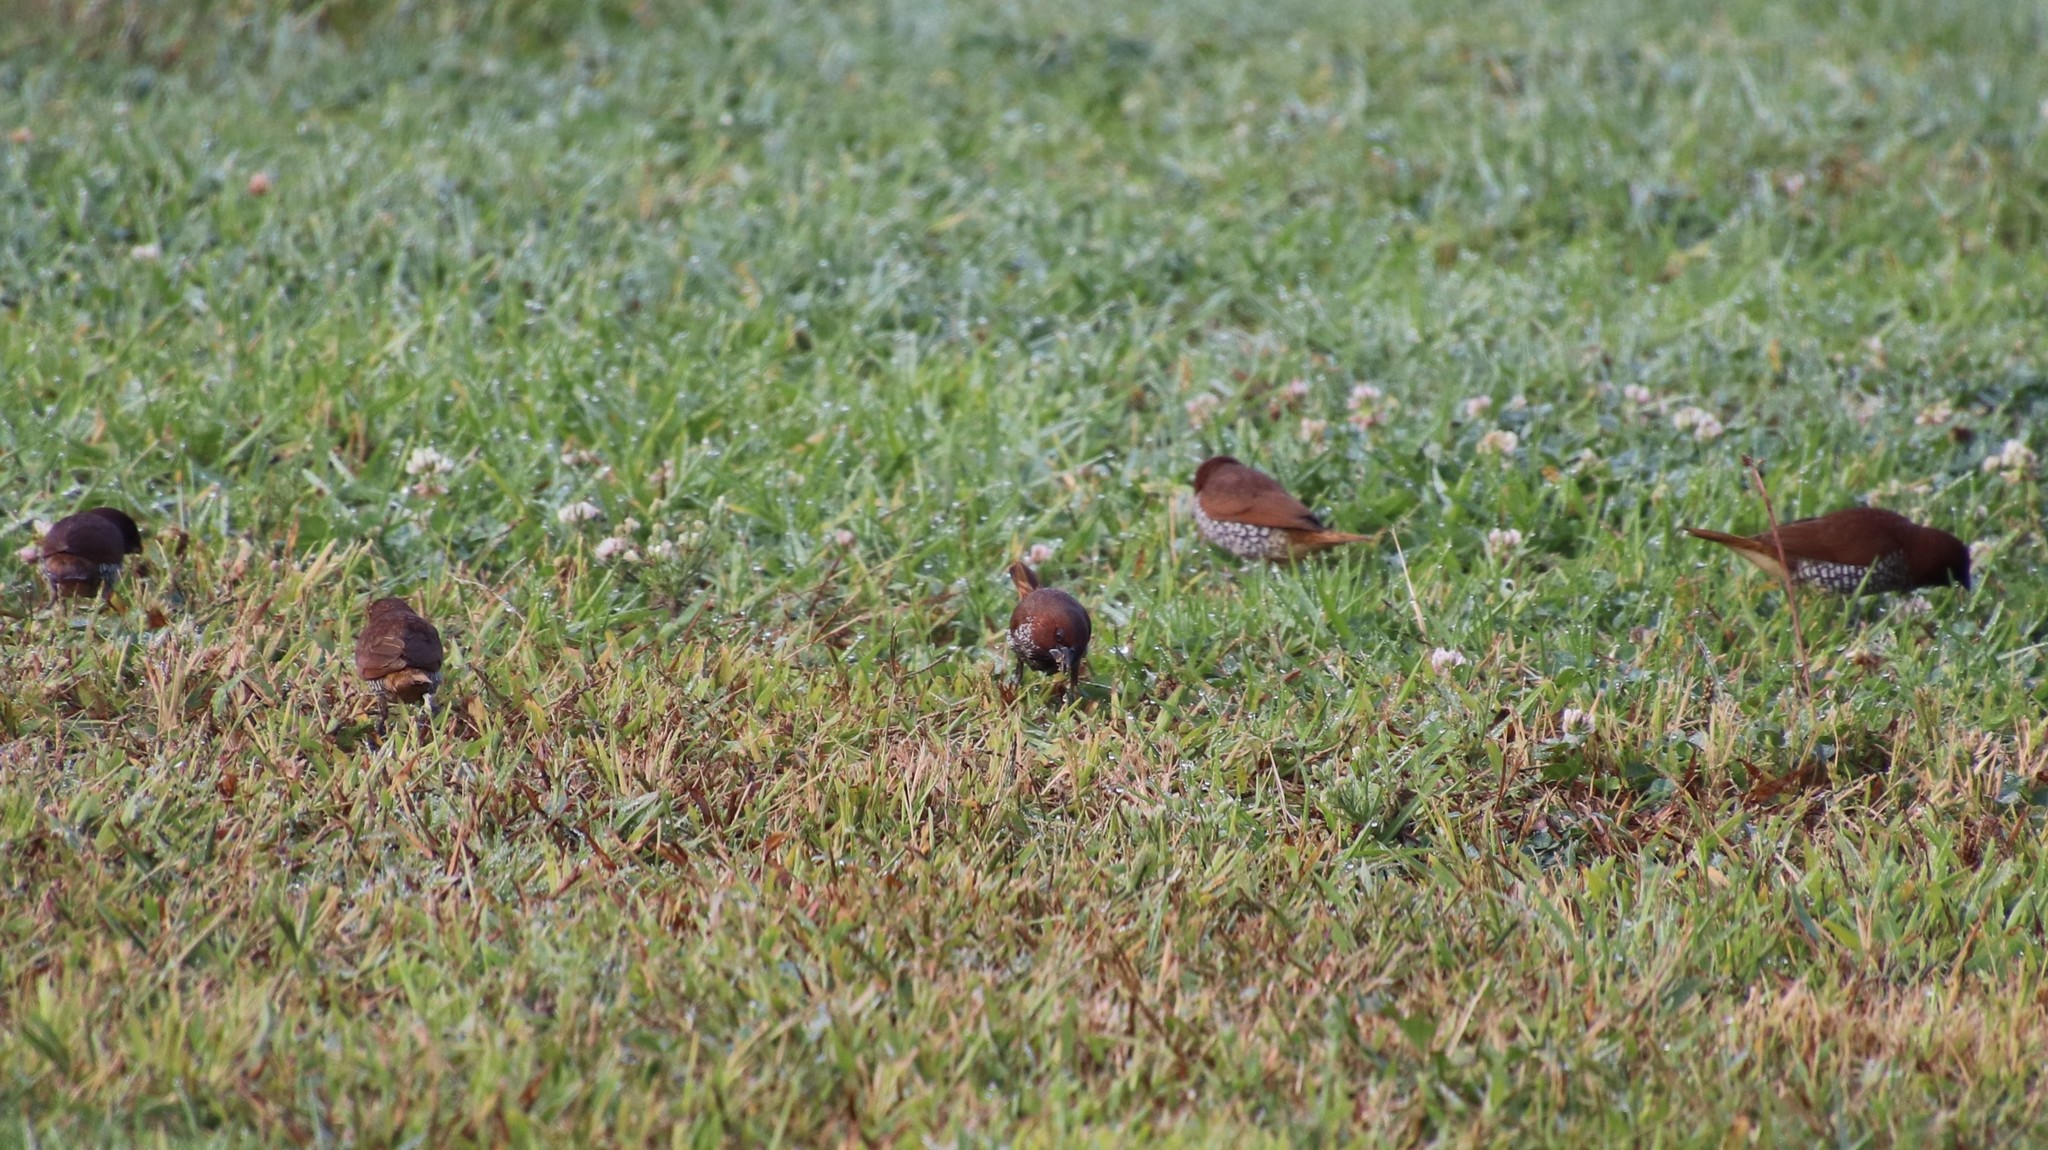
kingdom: Animalia
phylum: Chordata
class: Aves
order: Passeriformes
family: Estrildidae
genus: Lonchura
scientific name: Lonchura punctulata
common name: Scaly-breasted munia
